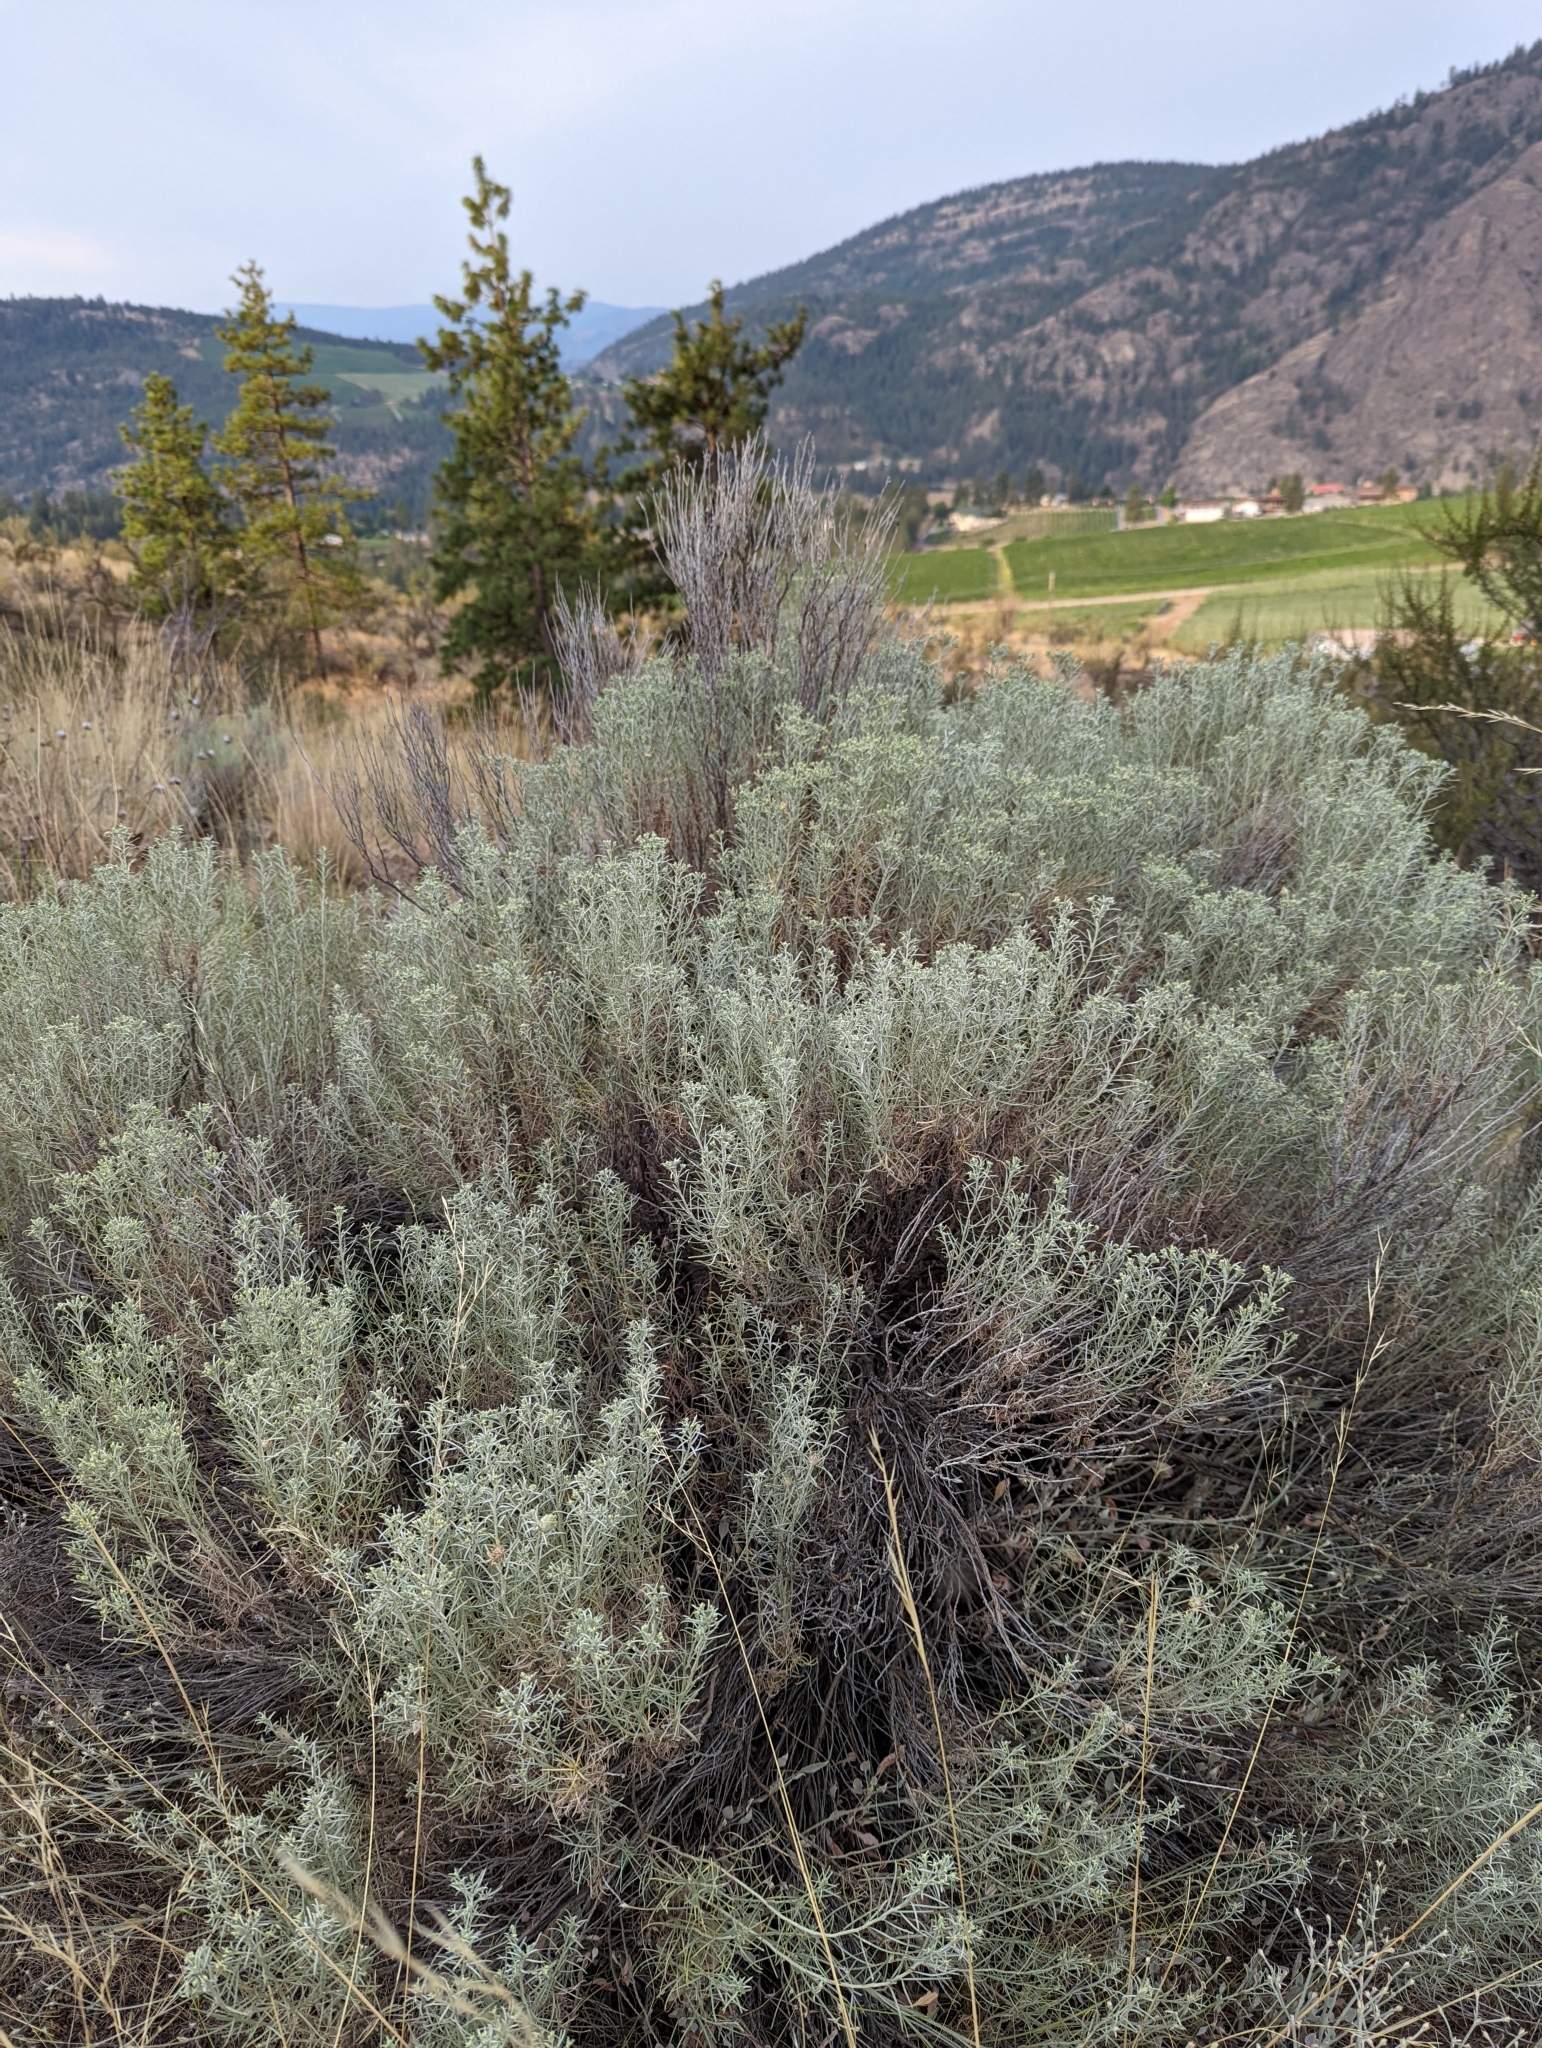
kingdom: Plantae
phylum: Tracheophyta
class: Magnoliopsida
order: Asterales
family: Asteraceae
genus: Ericameria
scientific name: Ericameria nauseosa
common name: Rubber rabbitbrush
